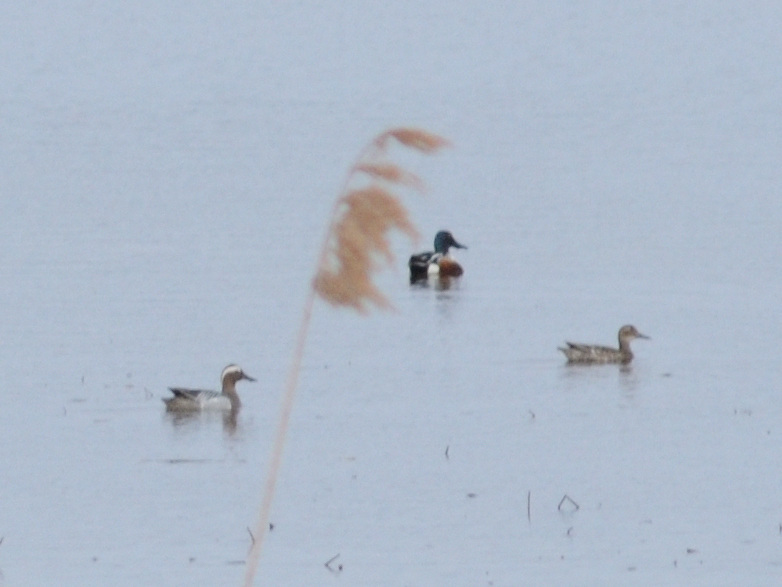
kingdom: Animalia
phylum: Chordata
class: Aves
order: Anseriformes
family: Anatidae
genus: Spatula
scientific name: Spatula querquedula
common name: Garganey
